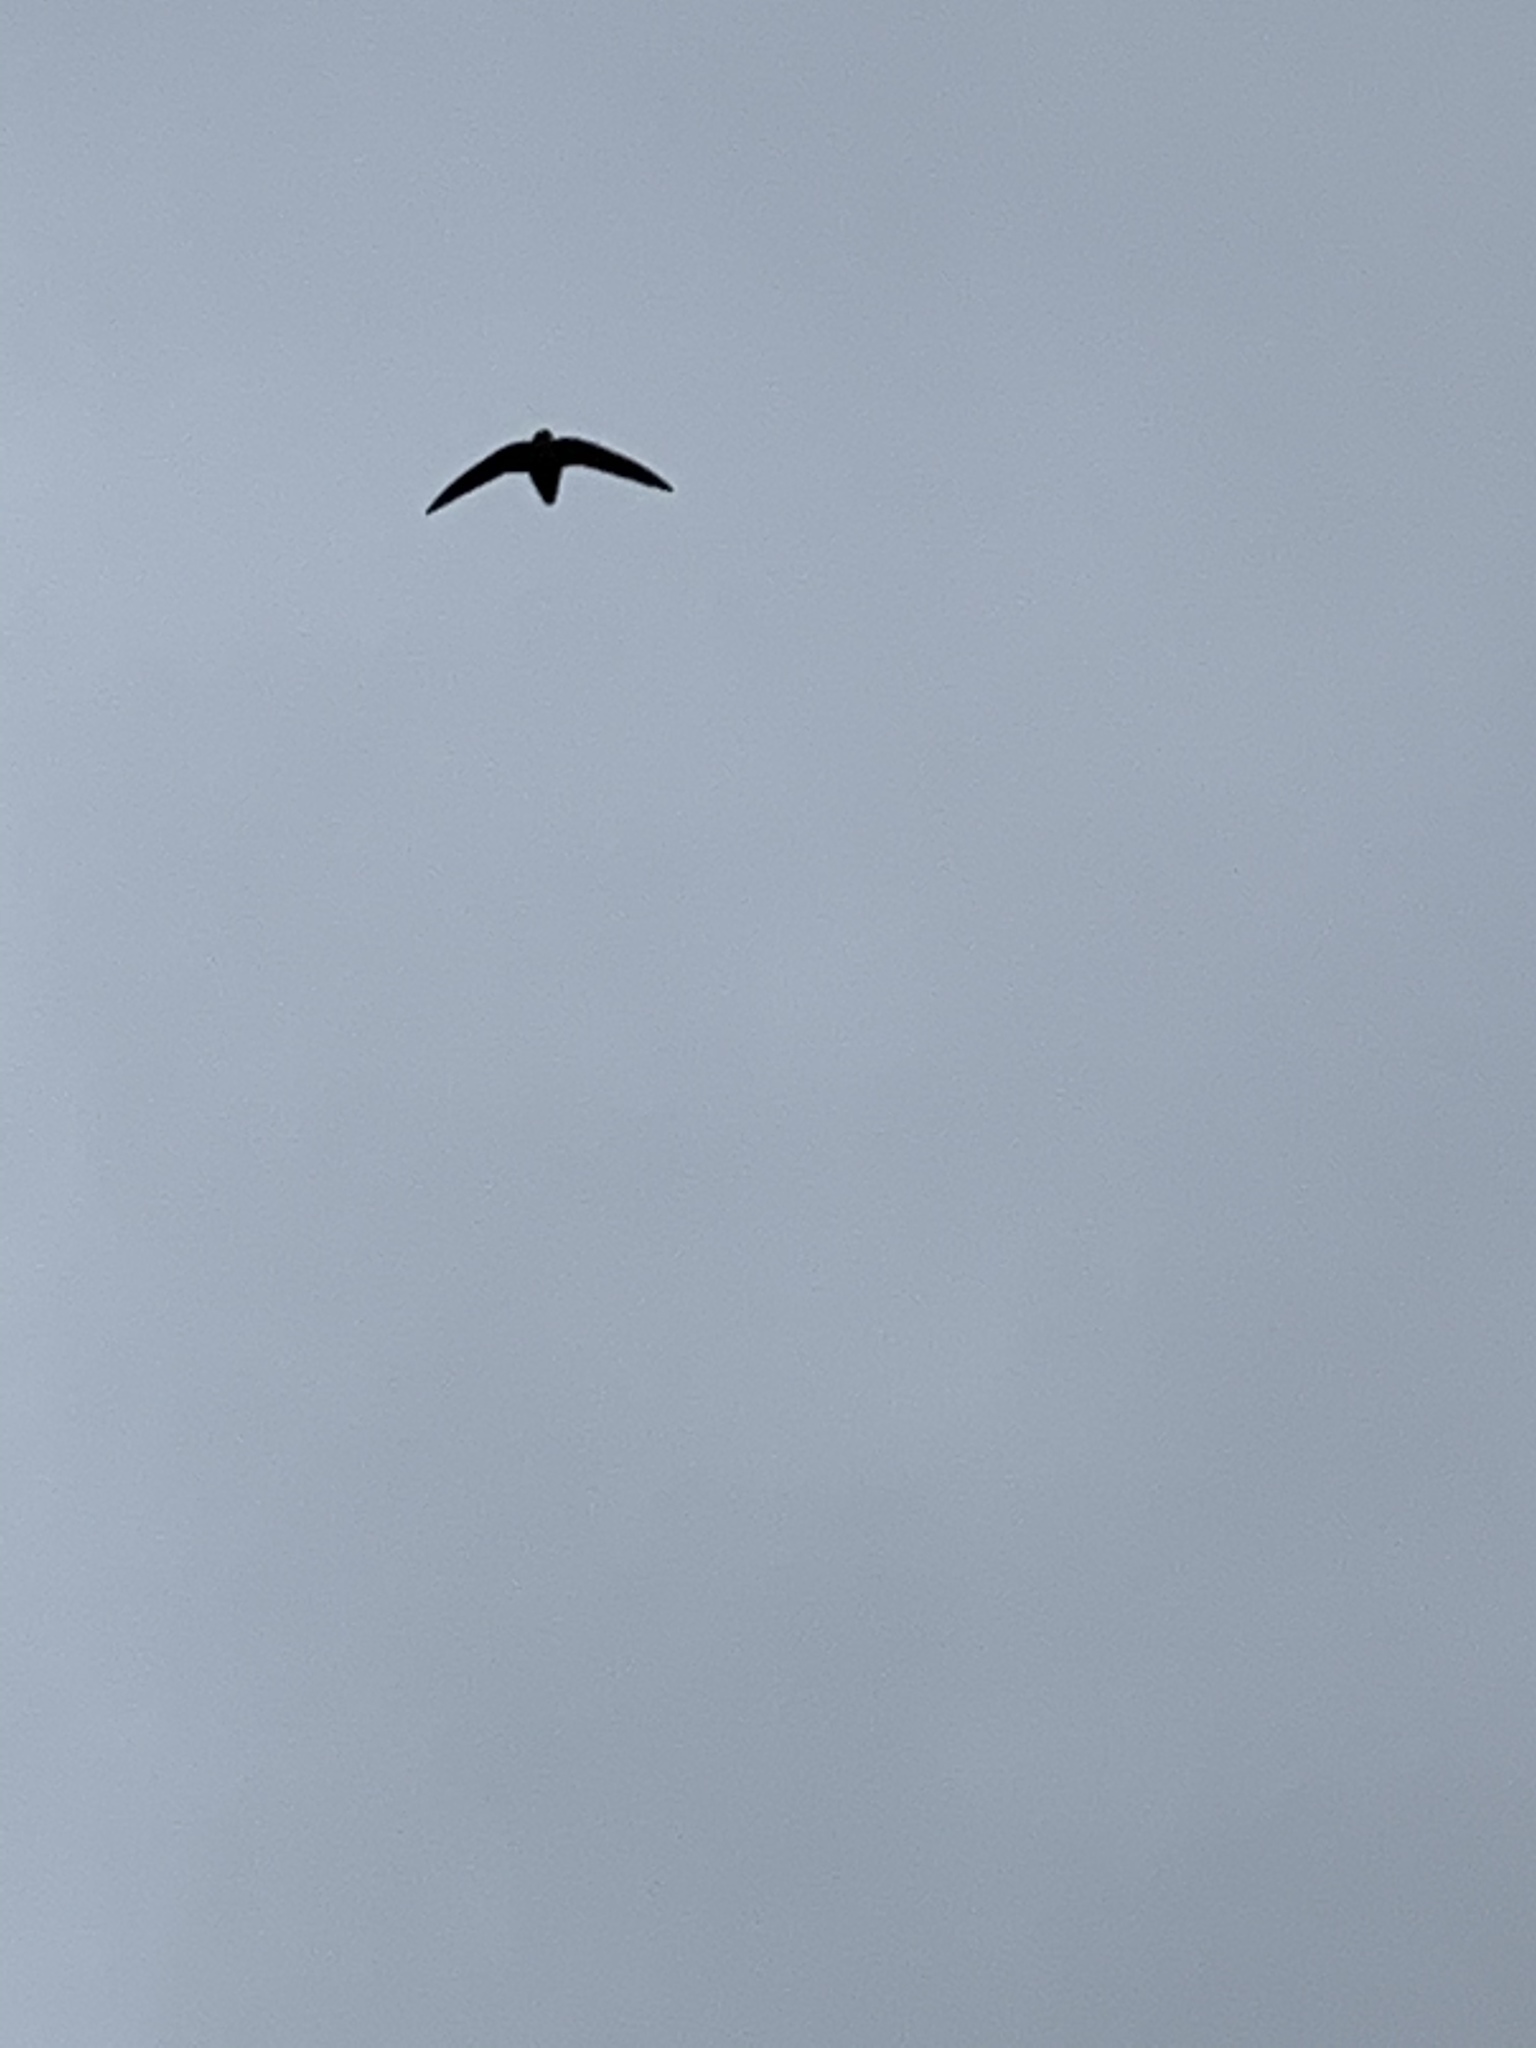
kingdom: Animalia
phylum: Chordata
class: Aves
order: Apodiformes
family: Apodidae
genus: Chaetura
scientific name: Chaetura pelagica
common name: Chimney swift
